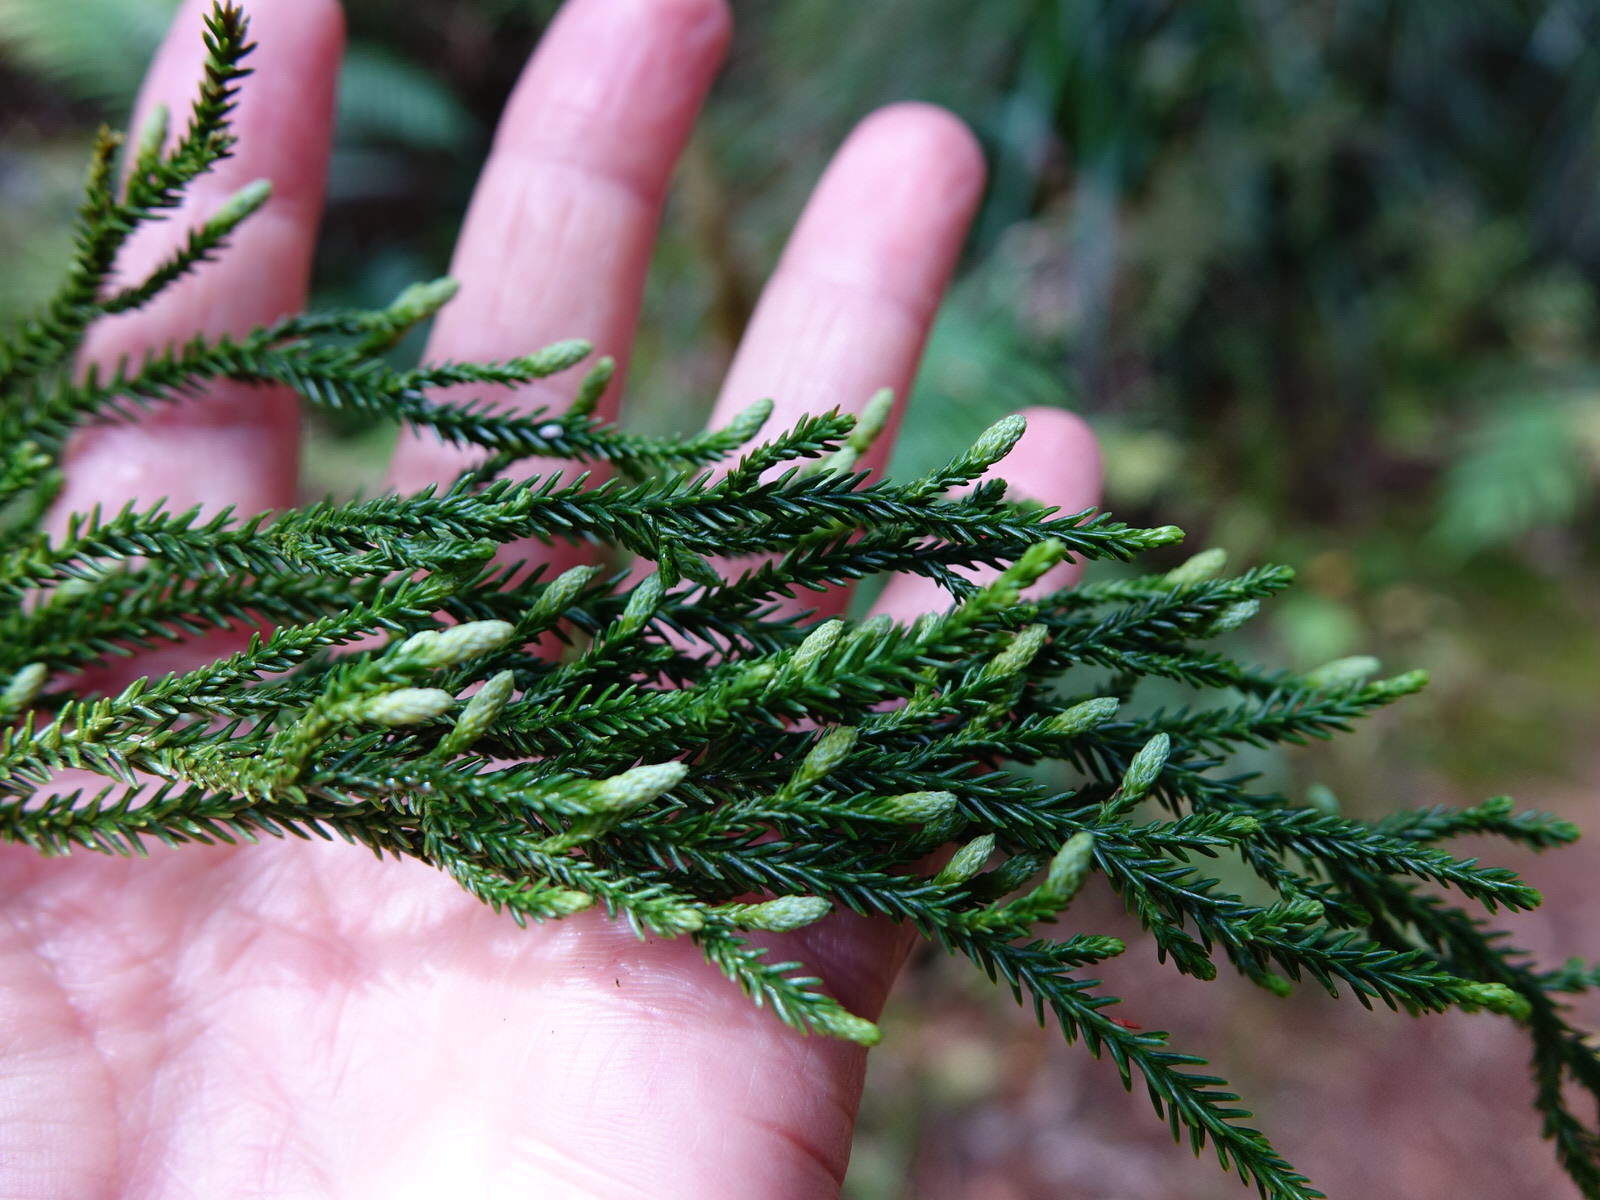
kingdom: Plantae
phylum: Tracheophyta
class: Pinopsida
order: Pinales
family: Podocarpaceae
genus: Dacrydium
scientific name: Dacrydium cupressinum
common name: Red pine
